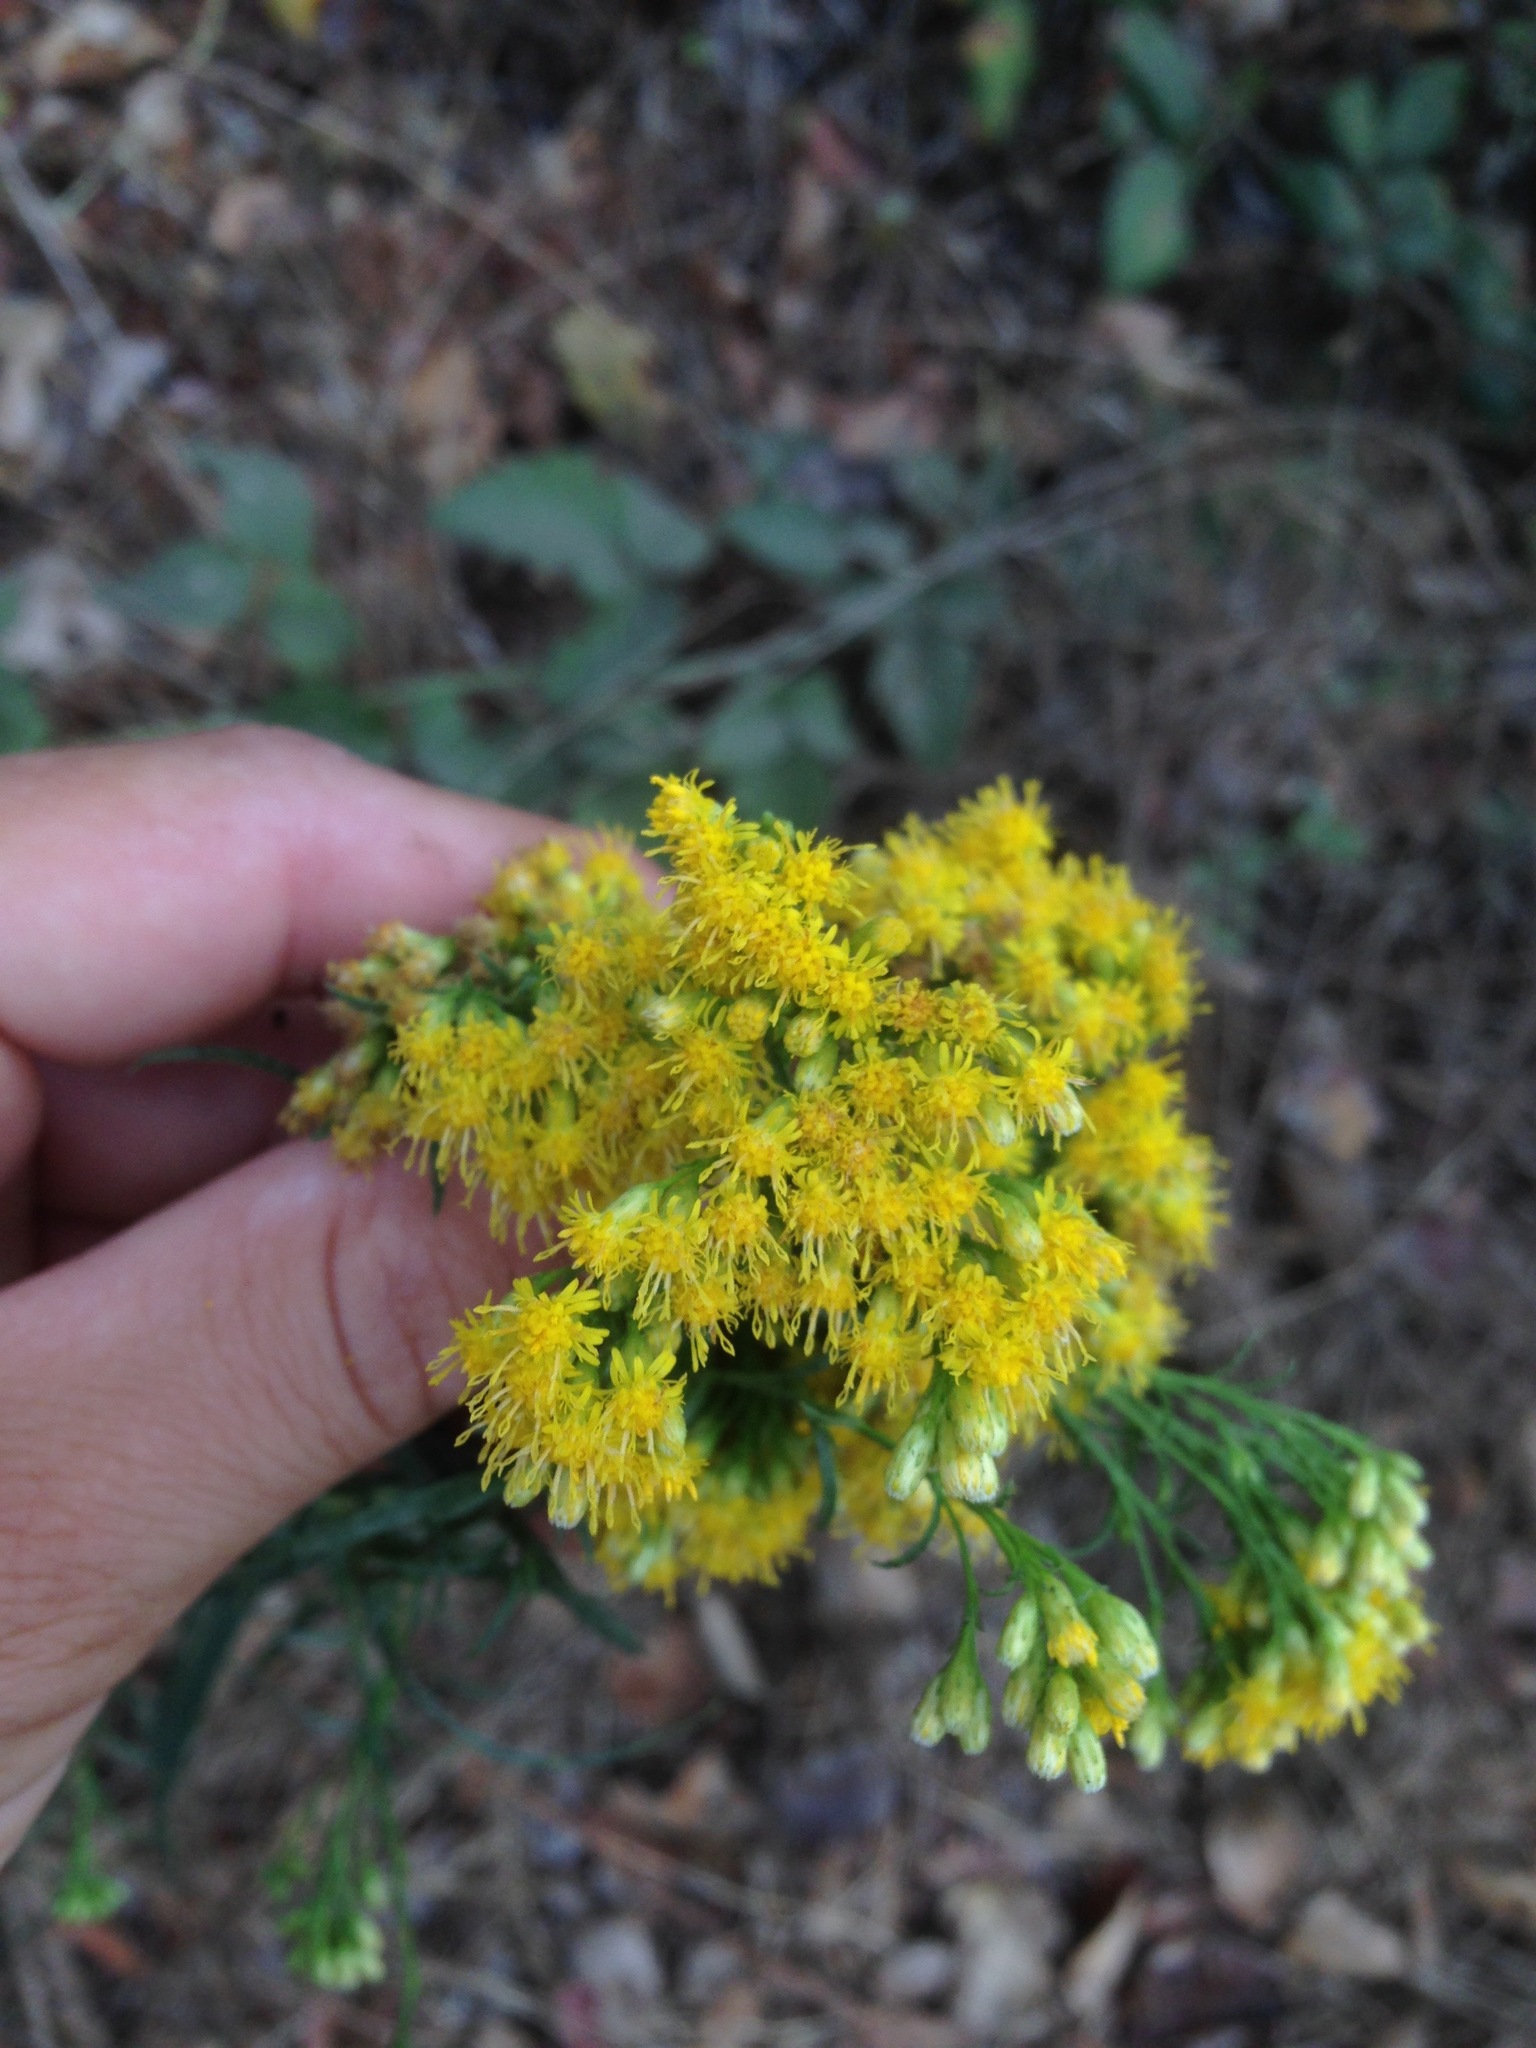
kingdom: Plantae
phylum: Tracheophyta
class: Magnoliopsida
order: Asterales
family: Asteraceae
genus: Euthamia
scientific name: Euthamia occidentalis
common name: Western goldentop
